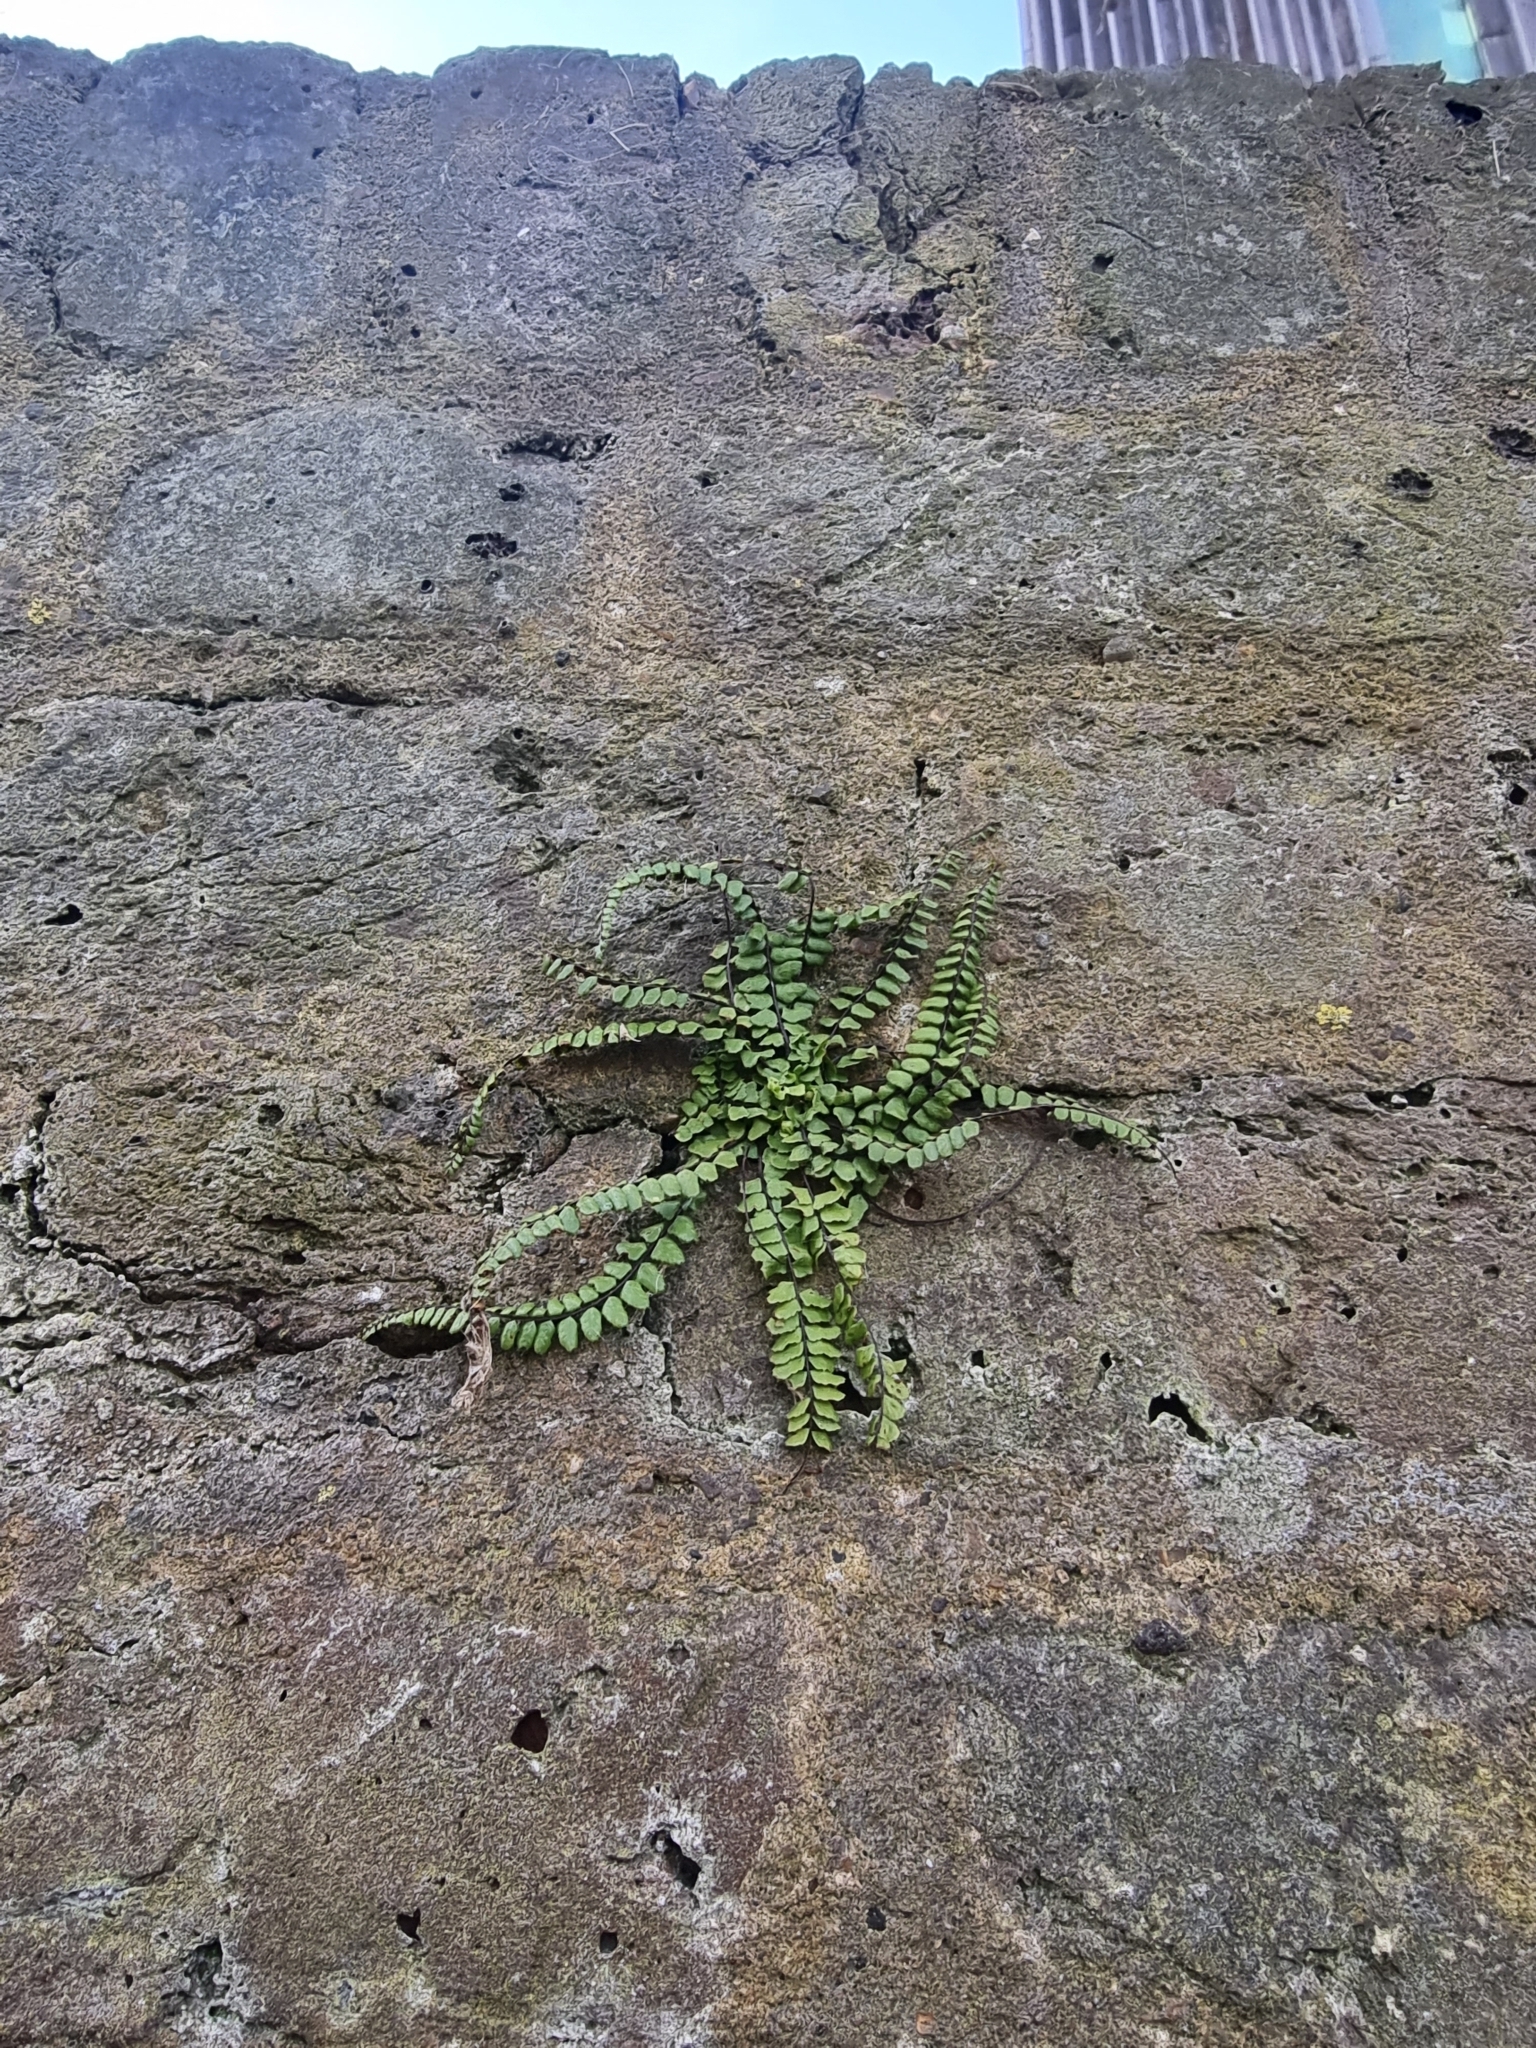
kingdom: Plantae
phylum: Tracheophyta
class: Polypodiopsida
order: Polypodiales
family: Aspleniaceae
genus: Asplenium
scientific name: Asplenium trichomanes
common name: Maidenhair spleenwort
